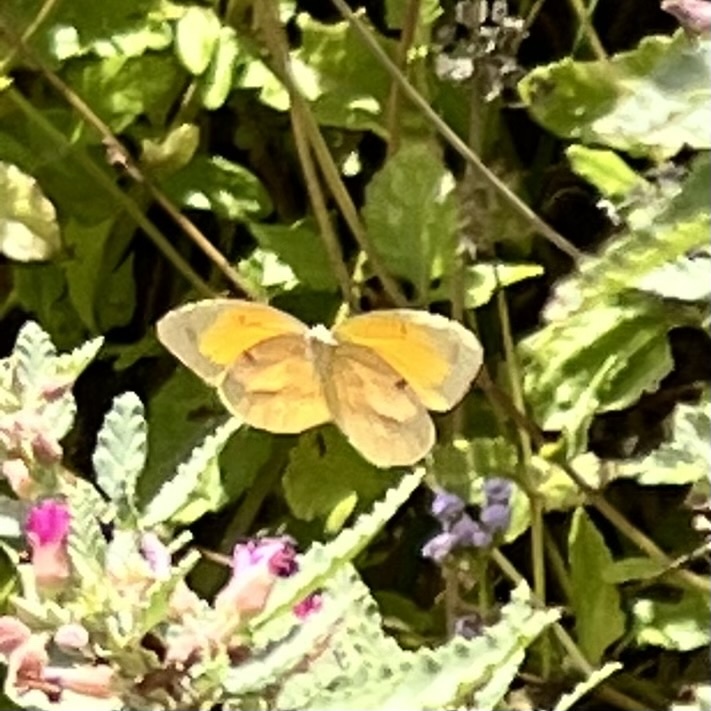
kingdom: Animalia
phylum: Arthropoda
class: Insecta
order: Lepidoptera
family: Pieridae
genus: Abaeis
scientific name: Abaeis nicippe
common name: Sleepy orange
